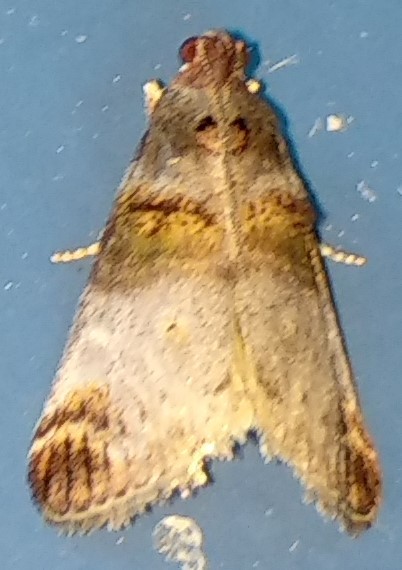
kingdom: Animalia
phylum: Arthropoda
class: Insecta
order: Lepidoptera
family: Pyralidae
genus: Oneida
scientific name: Oneida lunulalis
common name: Orange-tufted oneida moth
